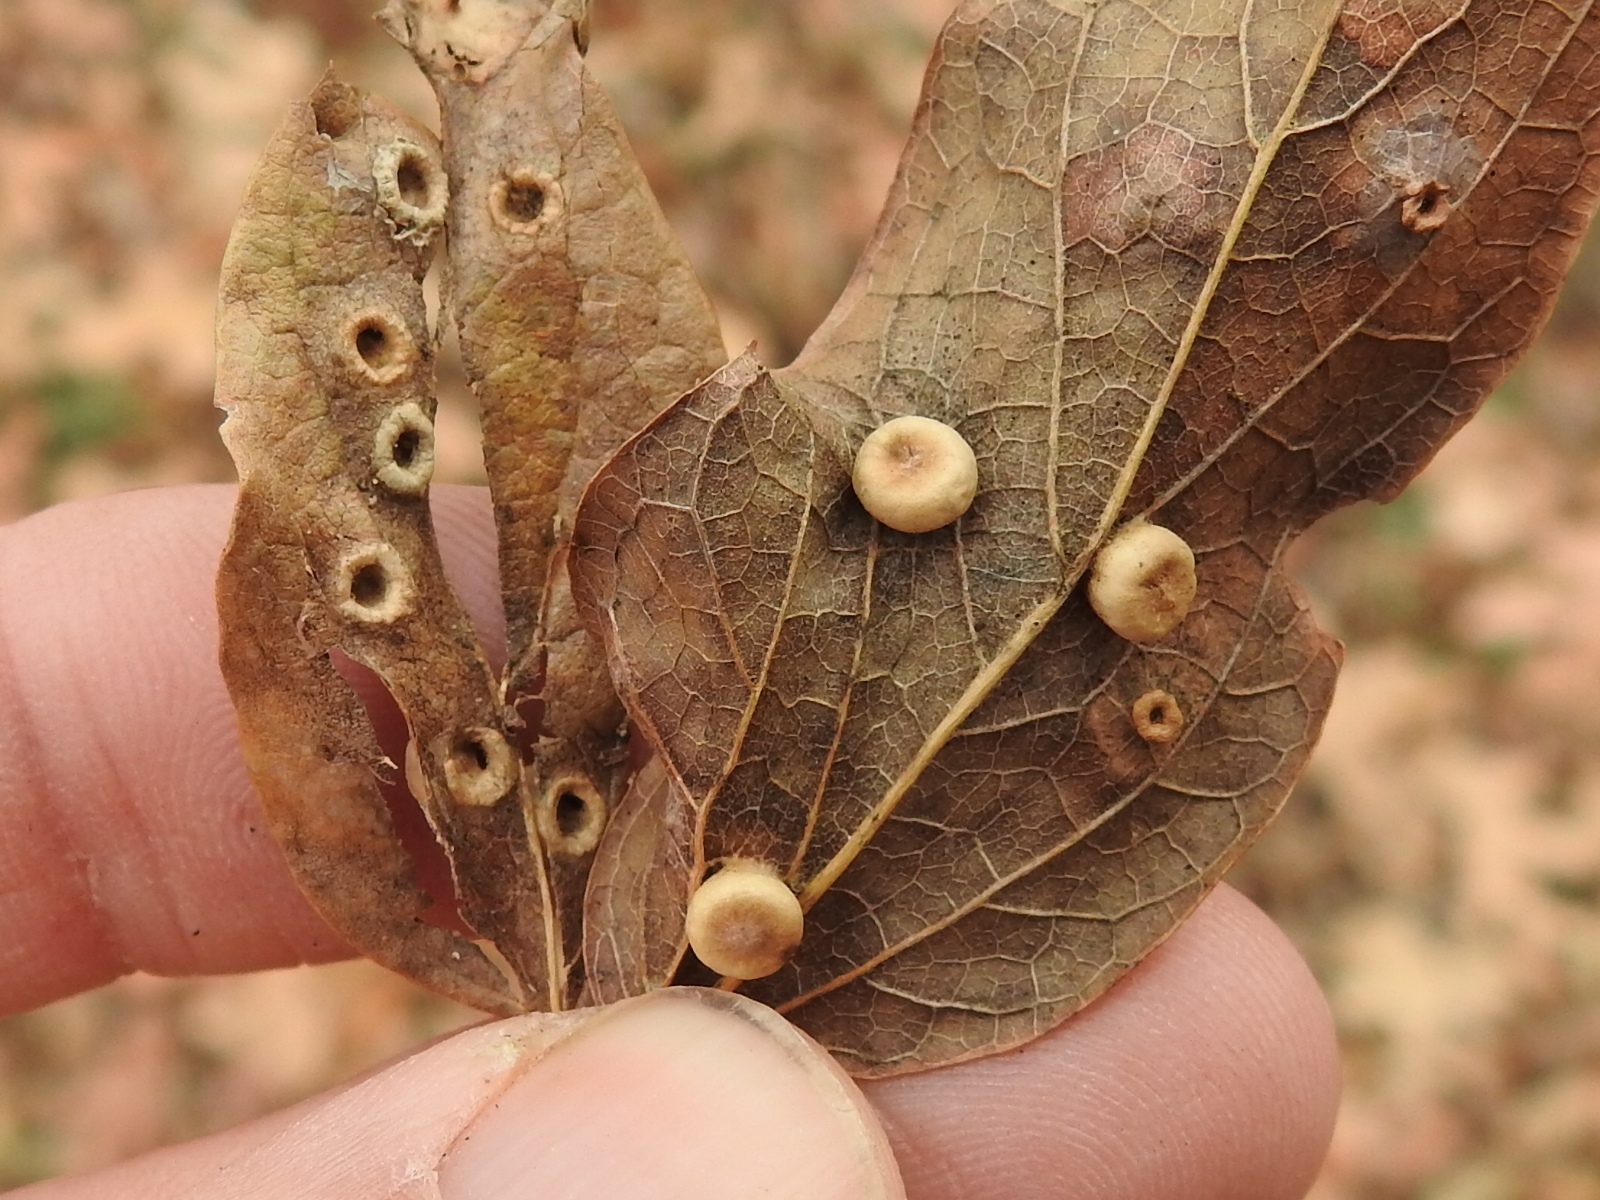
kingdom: Animalia
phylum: Arthropoda
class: Insecta
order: Hemiptera
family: Aphalaridae
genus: Pachypsylla
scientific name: Pachypsylla celtidismamma
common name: Hackberry nipplegall psyllid
